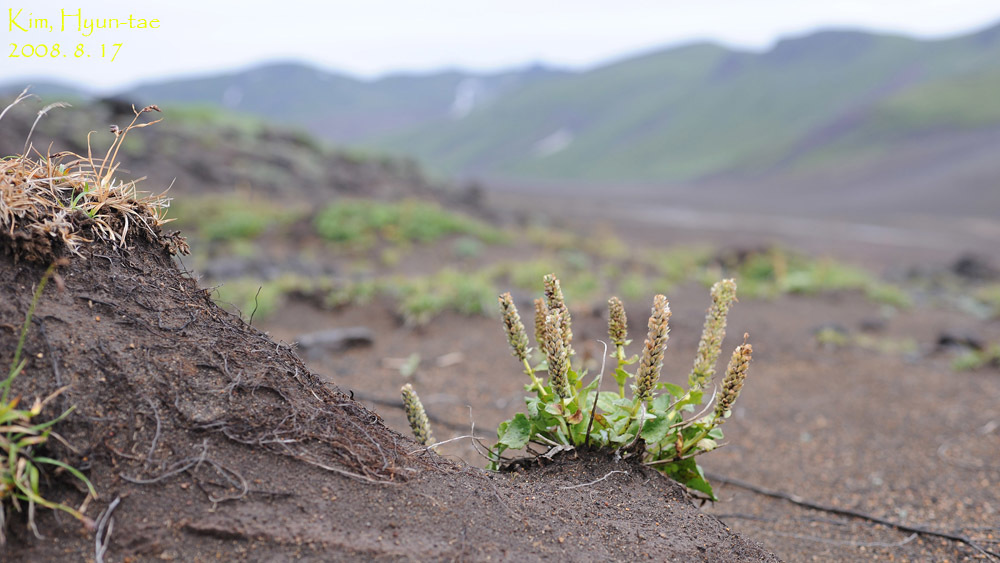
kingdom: Plantae
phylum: Tracheophyta
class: Magnoliopsida
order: Lamiales
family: Plantaginaceae
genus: Lagotis
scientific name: Lagotis glauca
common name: Glaucous weaselsnout
